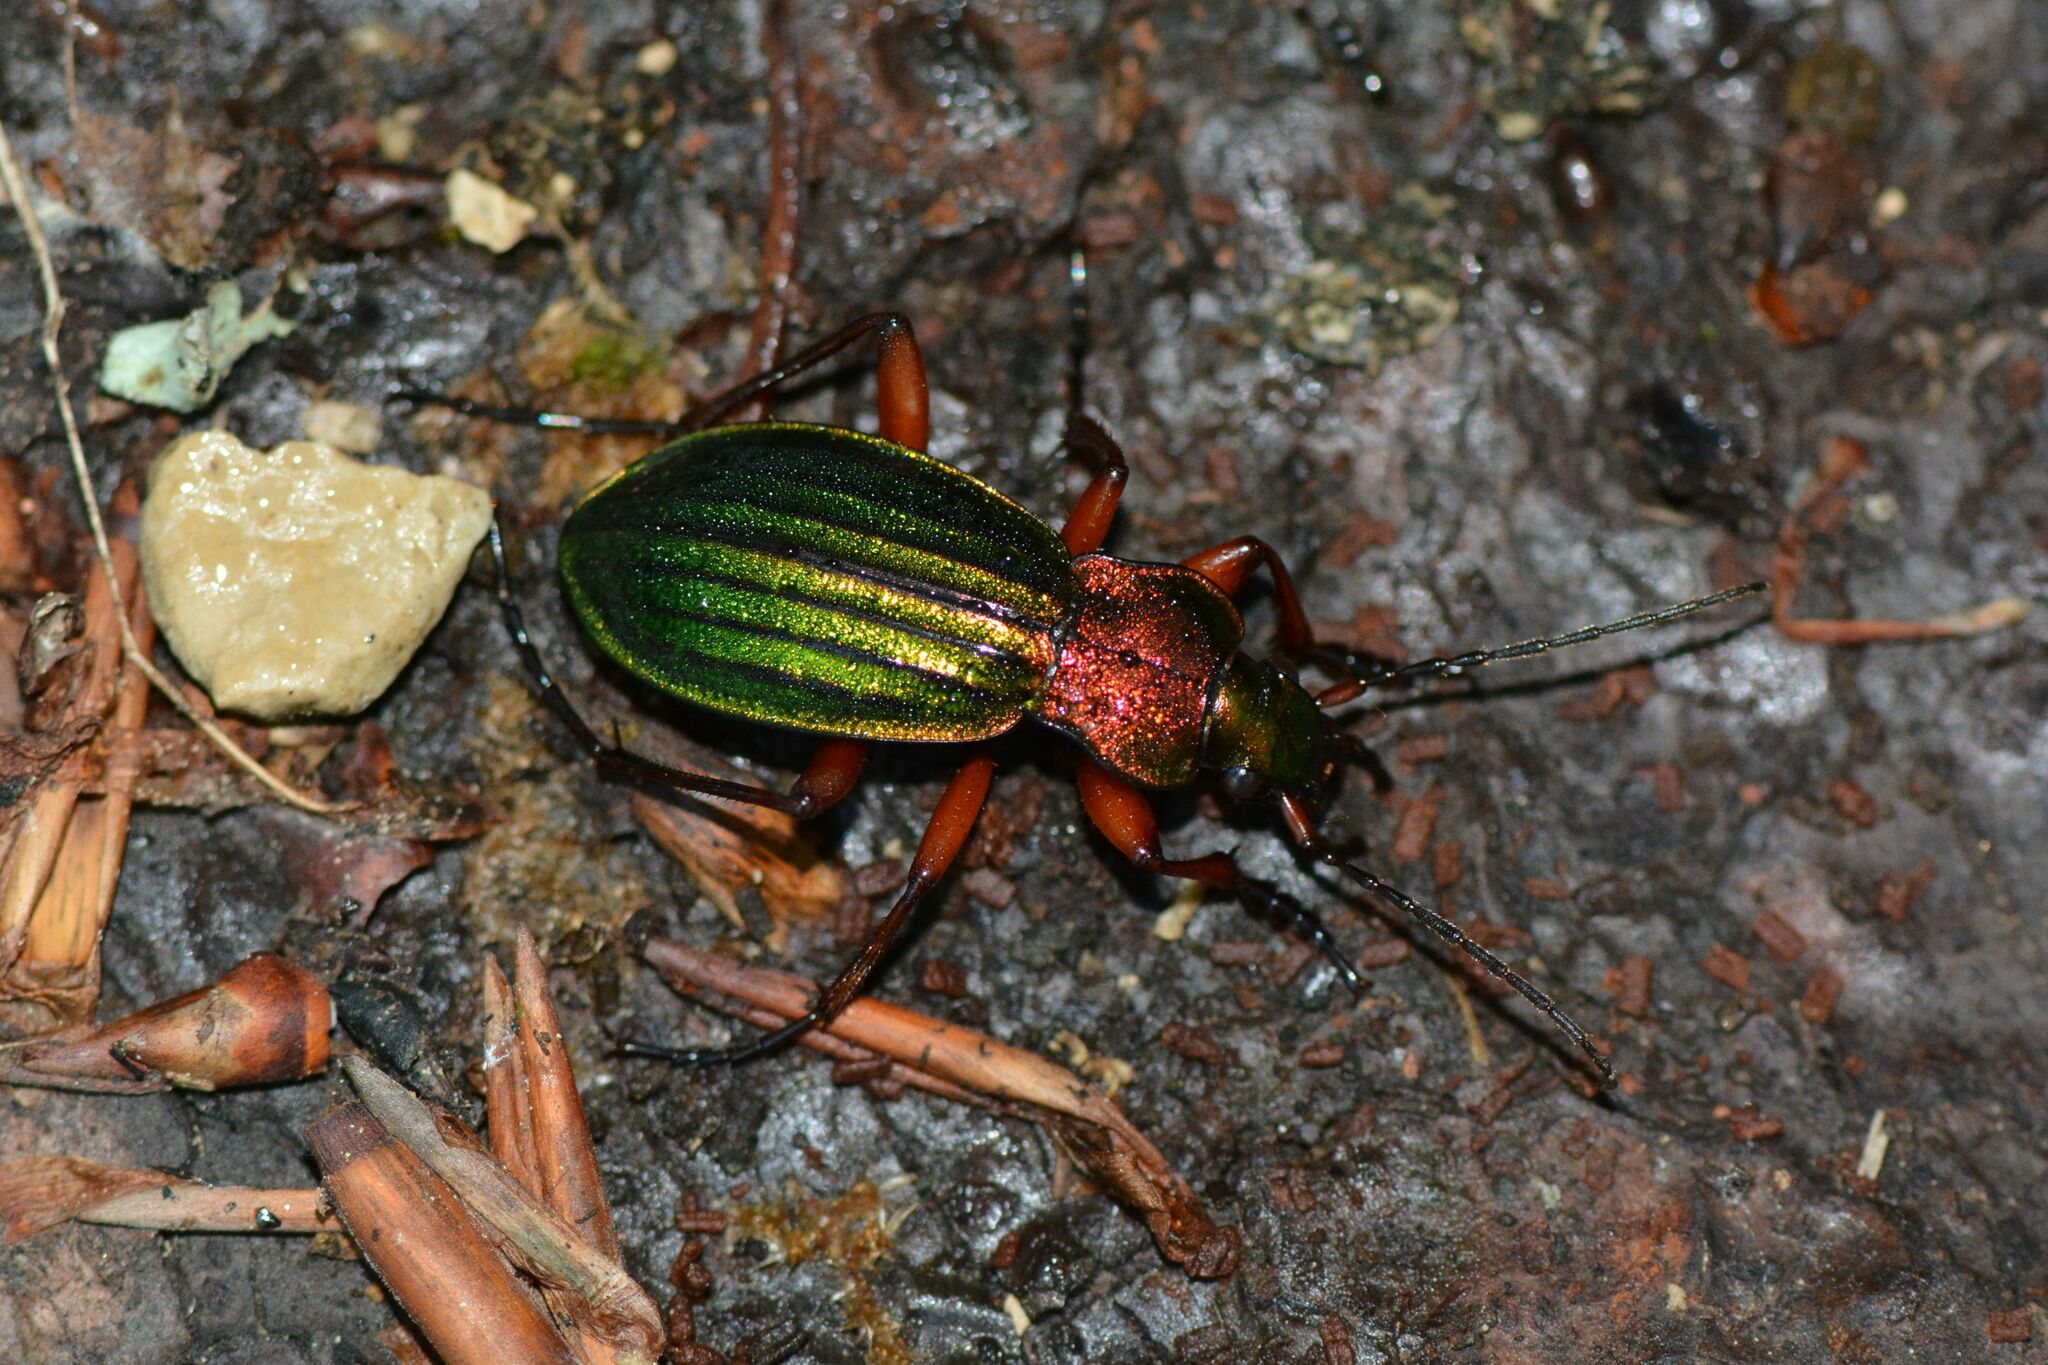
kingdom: Animalia
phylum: Arthropoda
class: Insecta
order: Coleoptera
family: Carabidae
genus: Carabus
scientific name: Carabus auronitens
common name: Carabus auronitens
